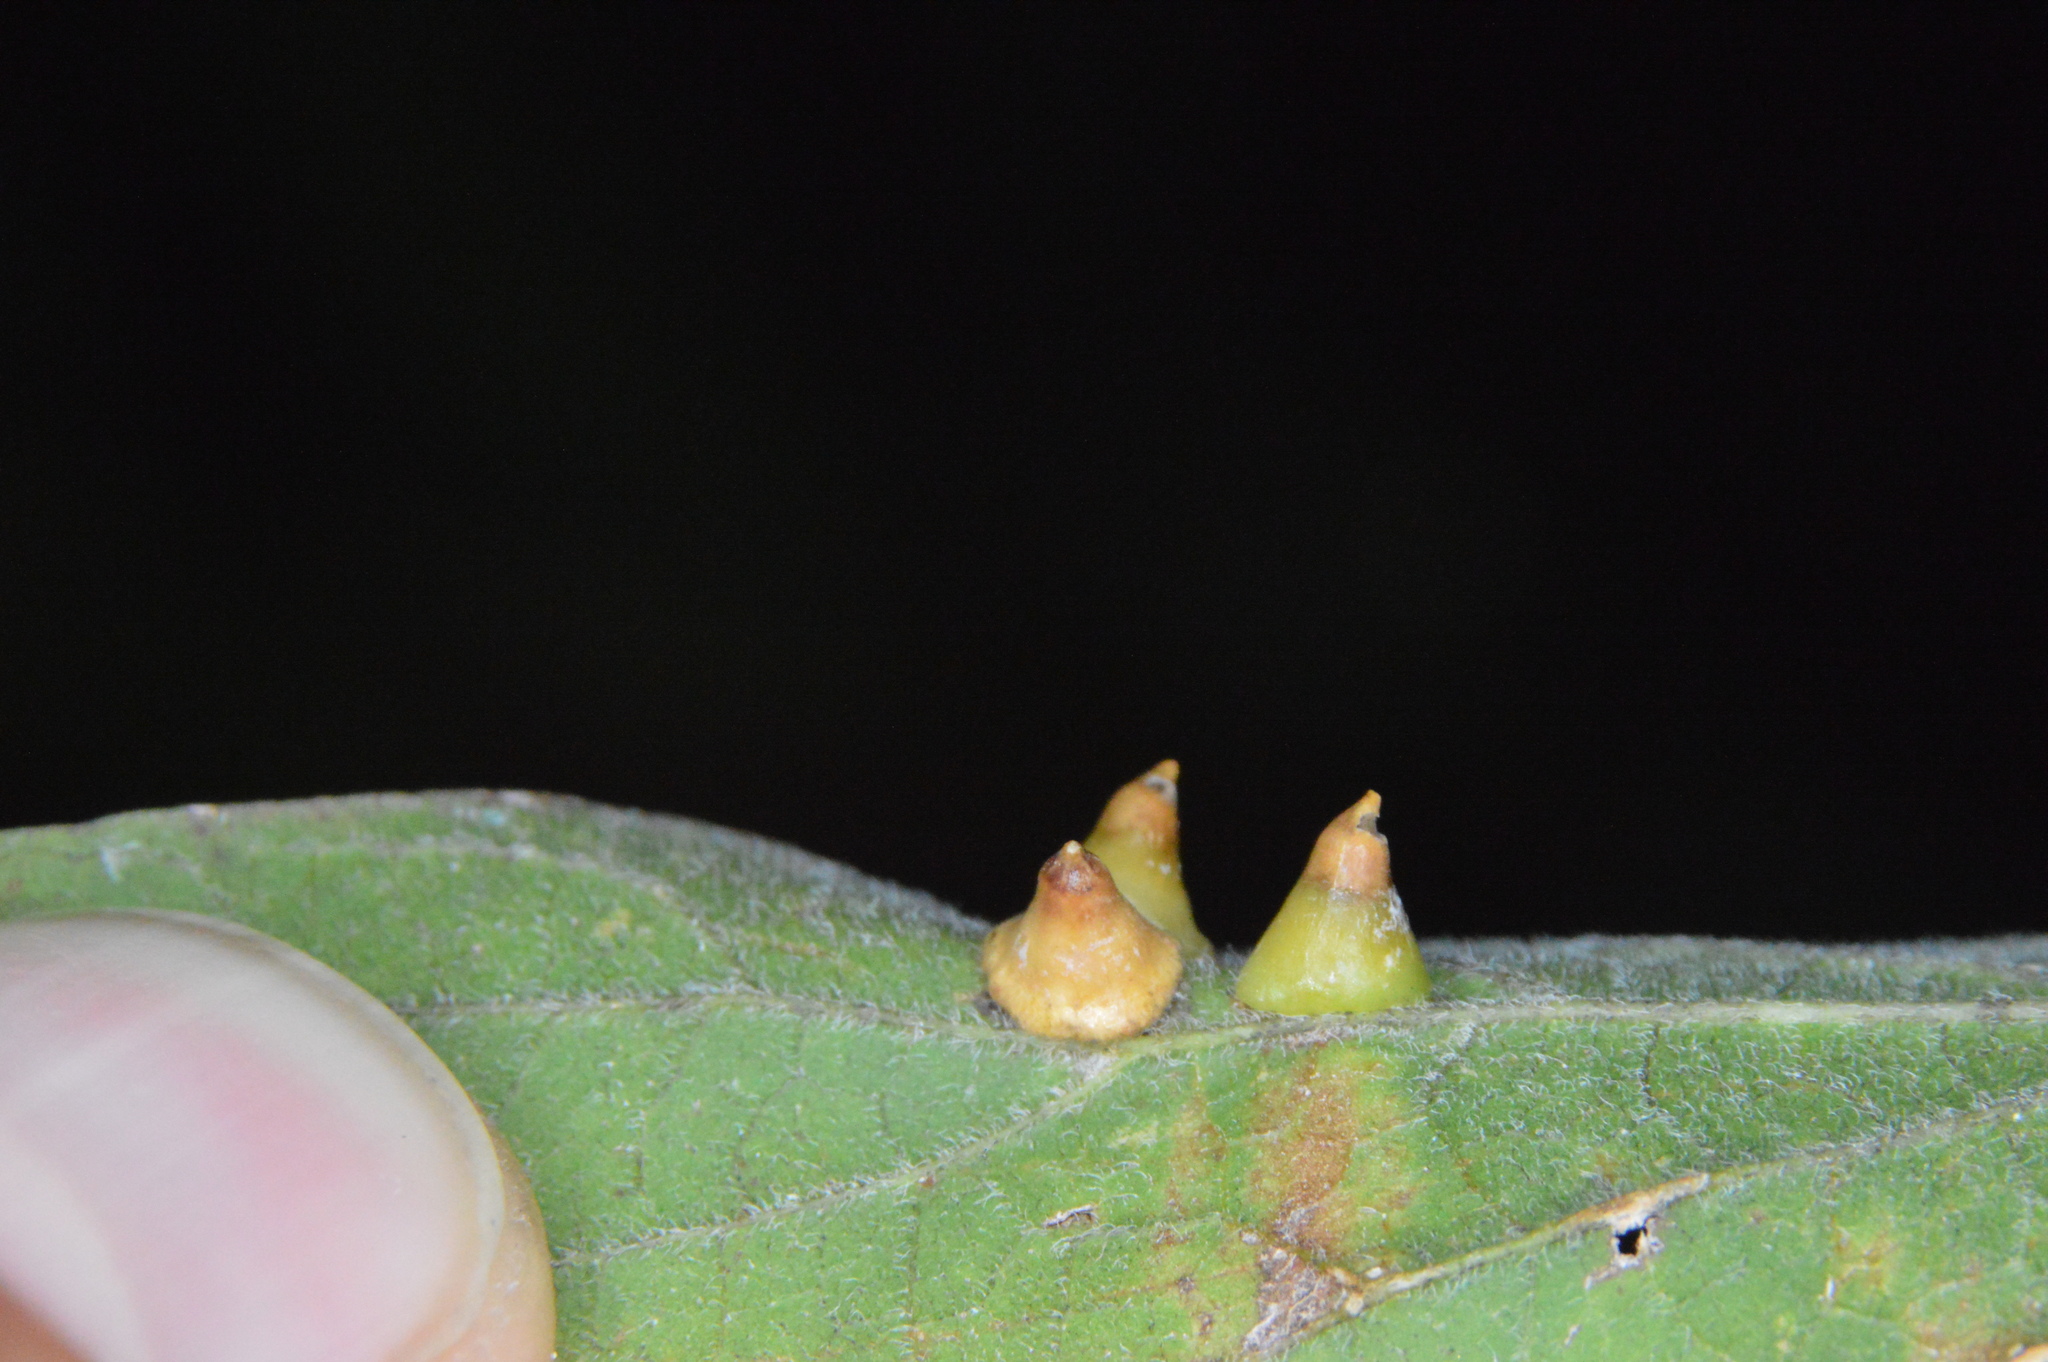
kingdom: Animalia
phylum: Arthropoda
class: Insecta
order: Diptera
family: Cecidomyiidae
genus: Celticecis
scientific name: Celticecis spiniformis
